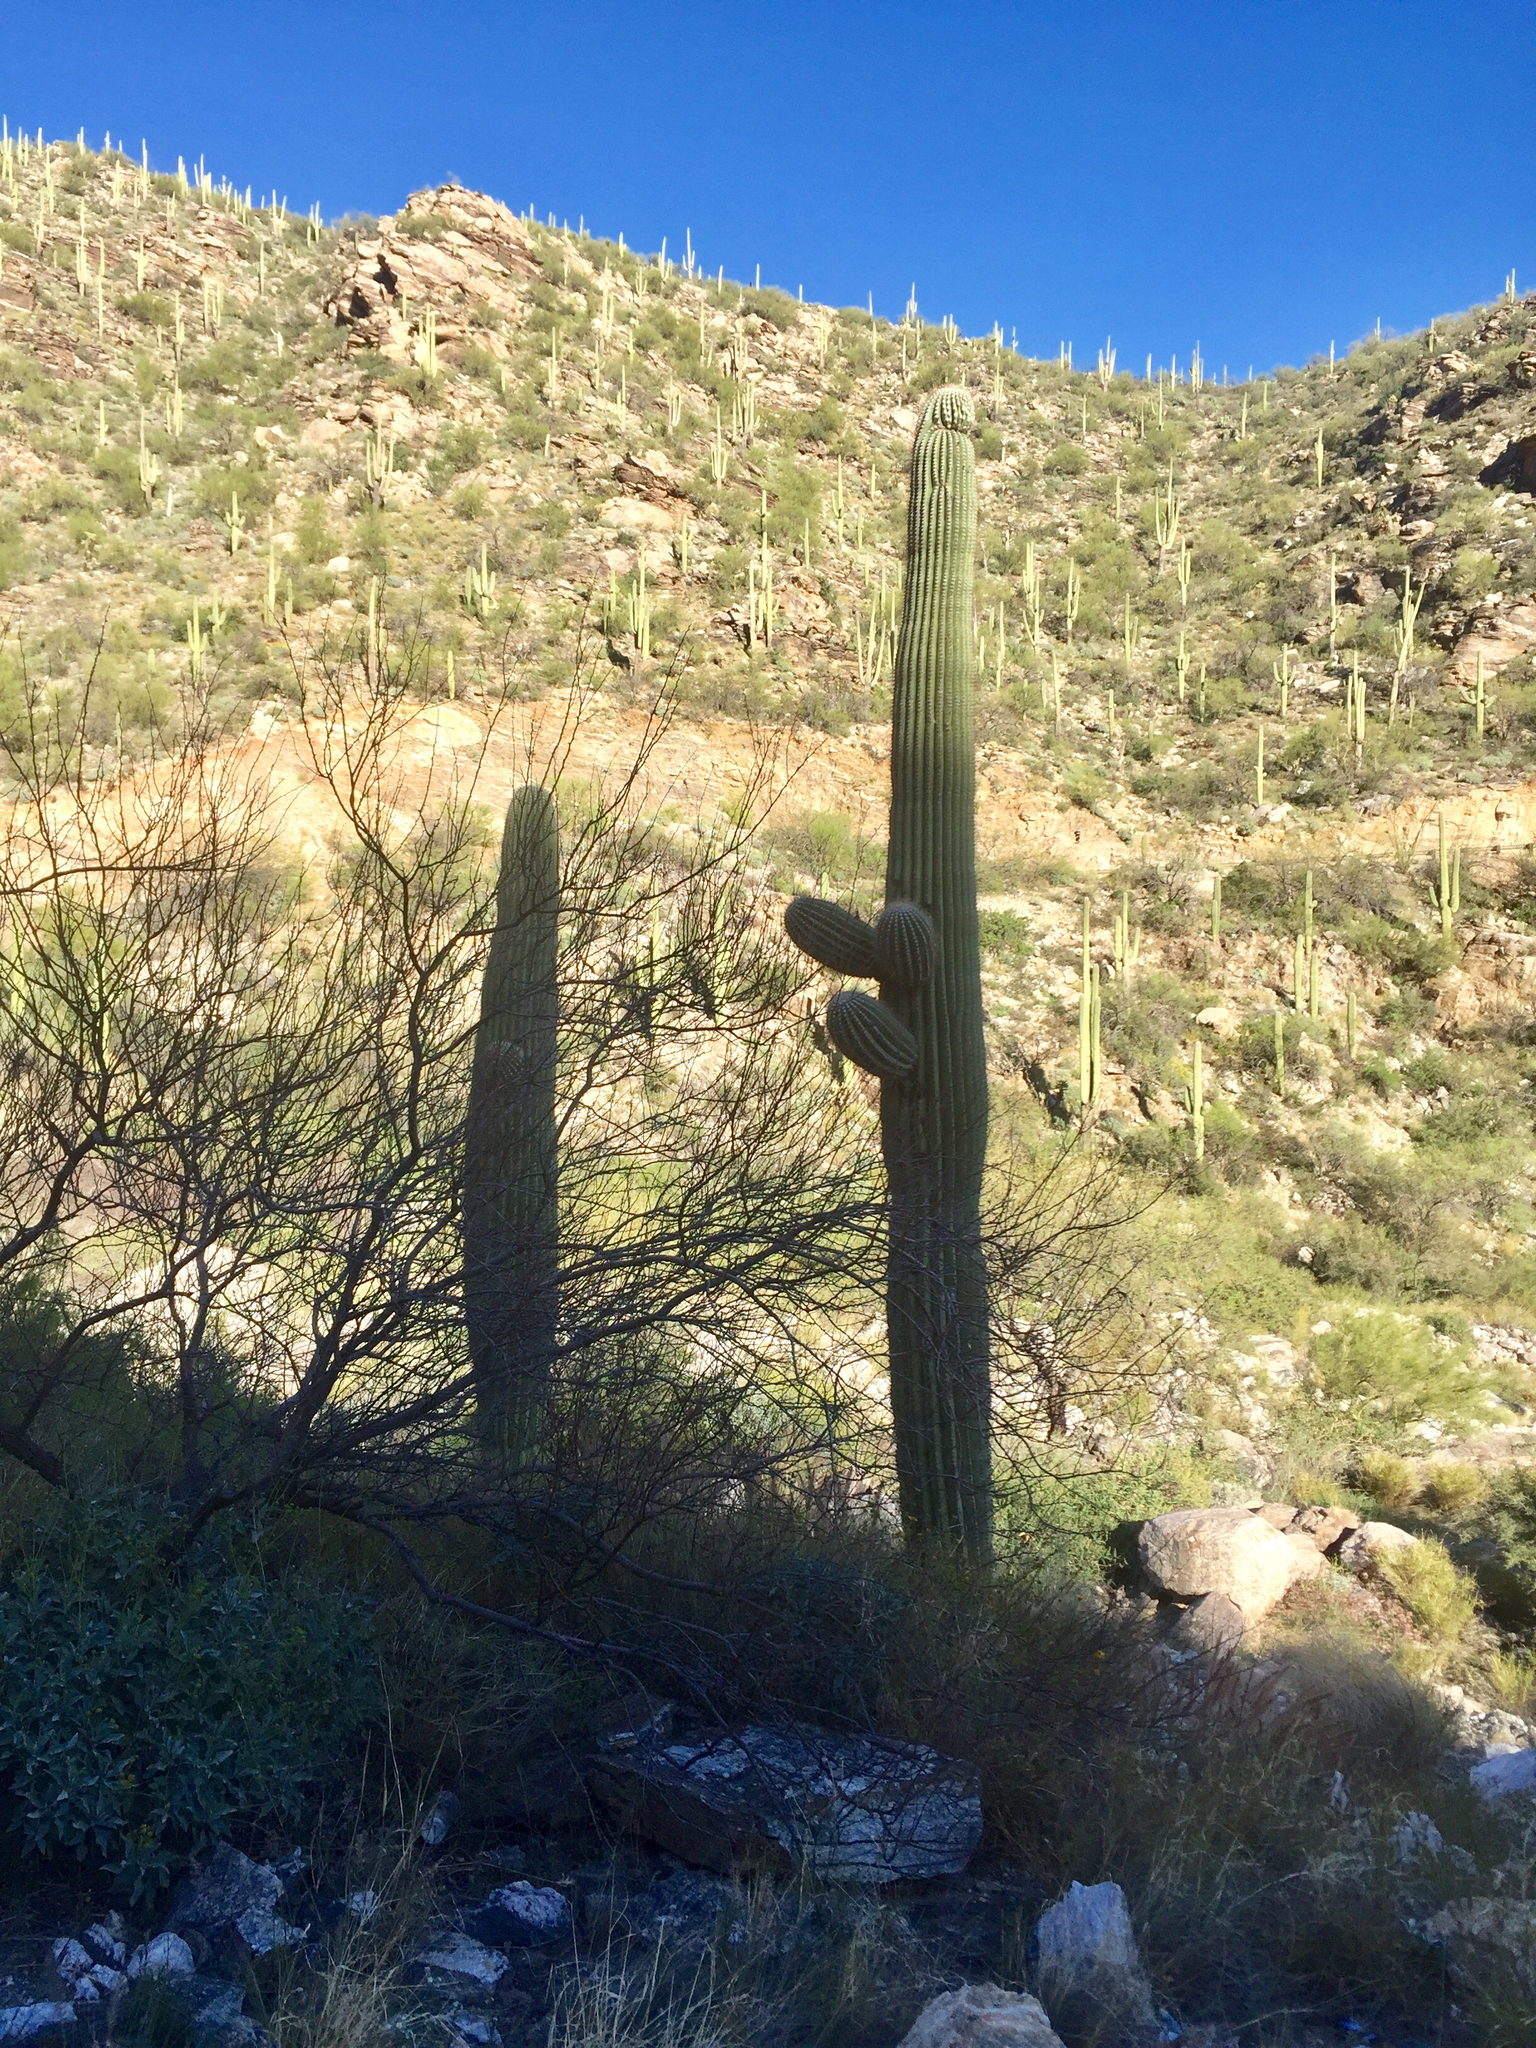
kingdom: Plantae
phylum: Tracheophyta
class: Magnoliopsida
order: Caryophyllales
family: Cactaceae
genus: Carnegiea
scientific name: Carnegiea gigantea
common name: Saguaro
